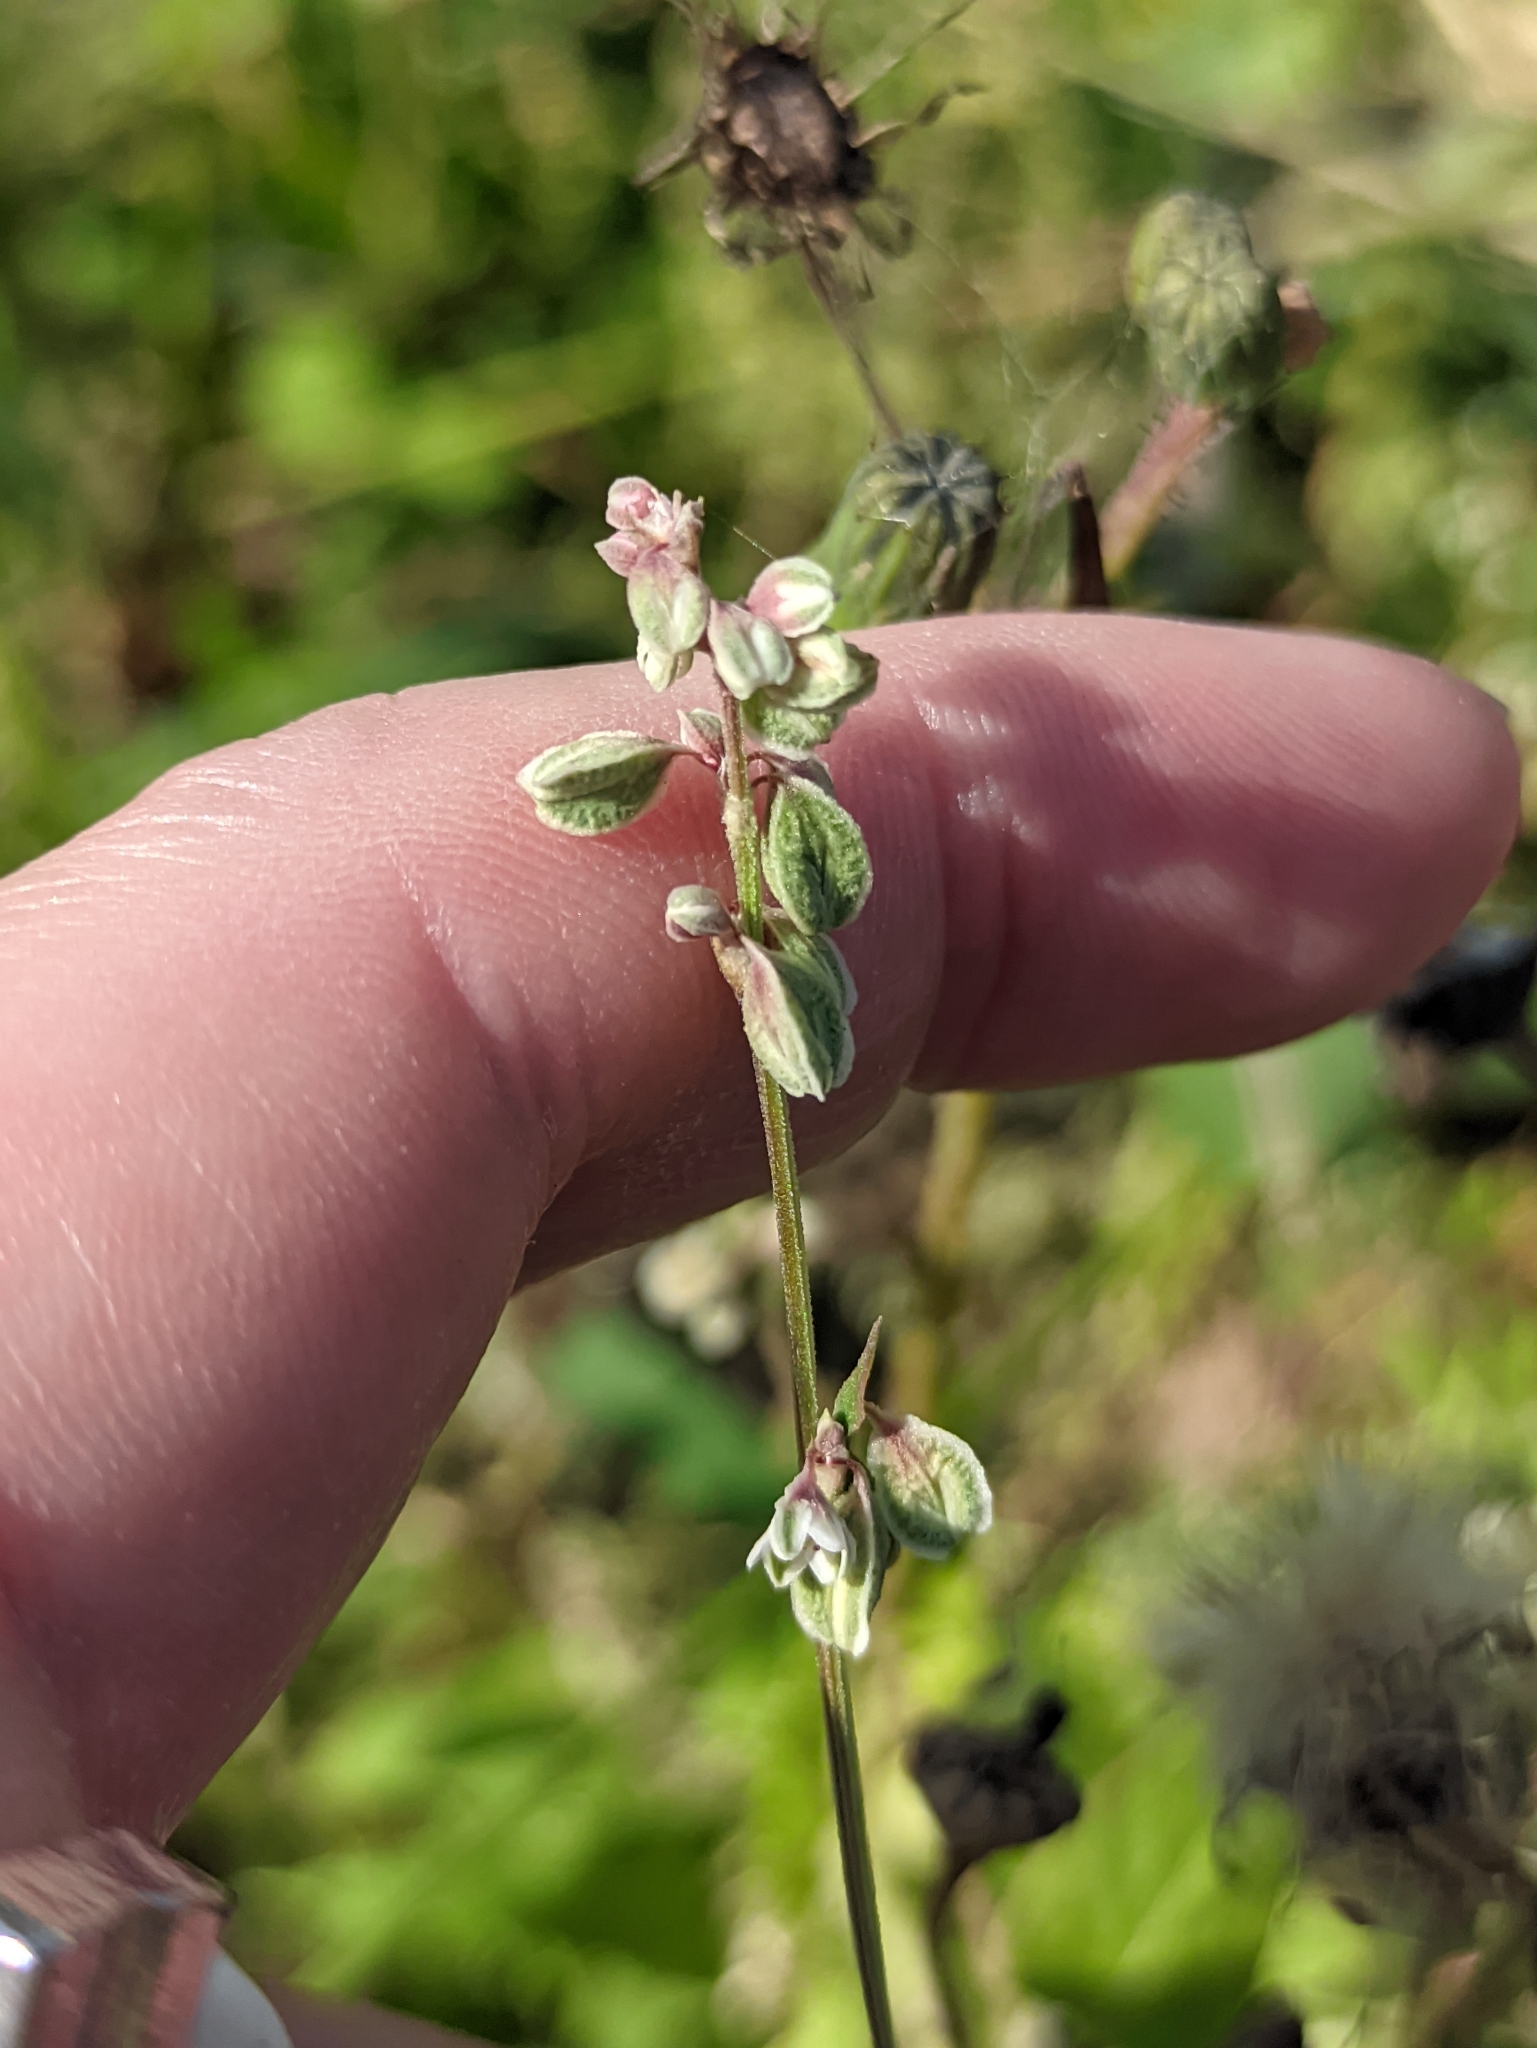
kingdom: Plantae
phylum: Tracheophyta
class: Magnoliopsida
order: Caryophyllales
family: Polygonaceae
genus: Fallopia
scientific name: Fallopia convolvulus
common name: Black bindweed
